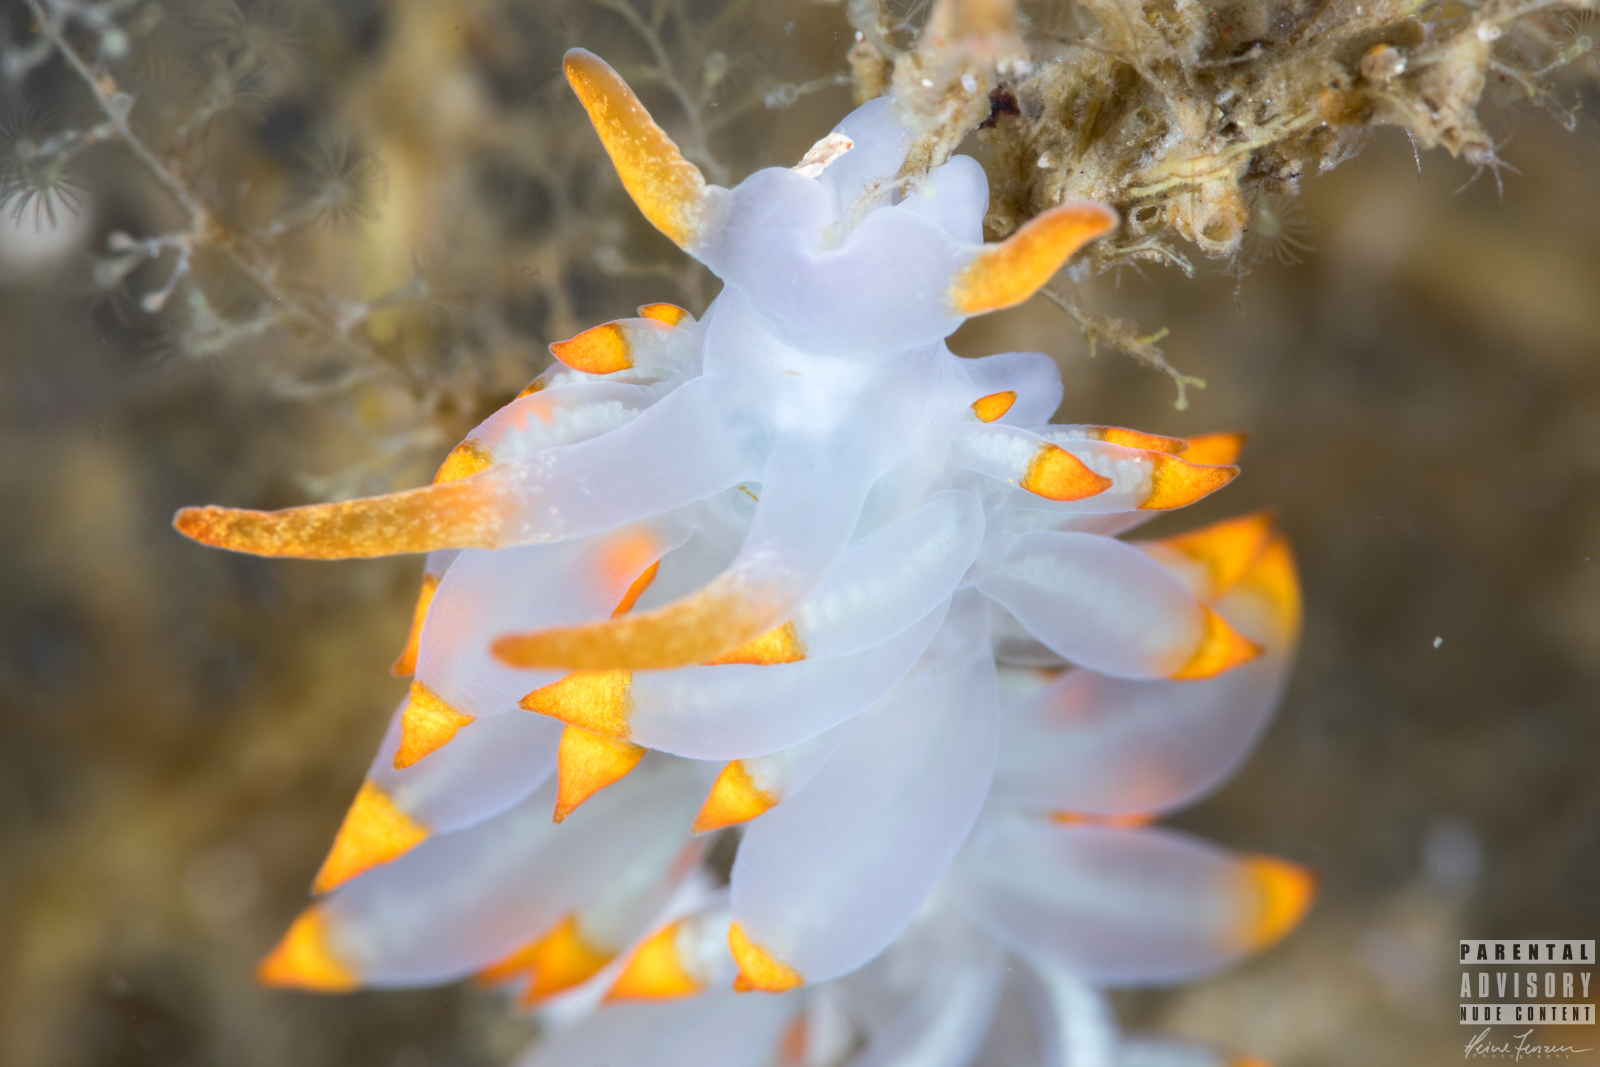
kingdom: Animalia
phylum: Mollusca
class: Gastropoda
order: Nudibranchia
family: Eubranchidae
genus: Amphorina
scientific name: Amphorina farrani
